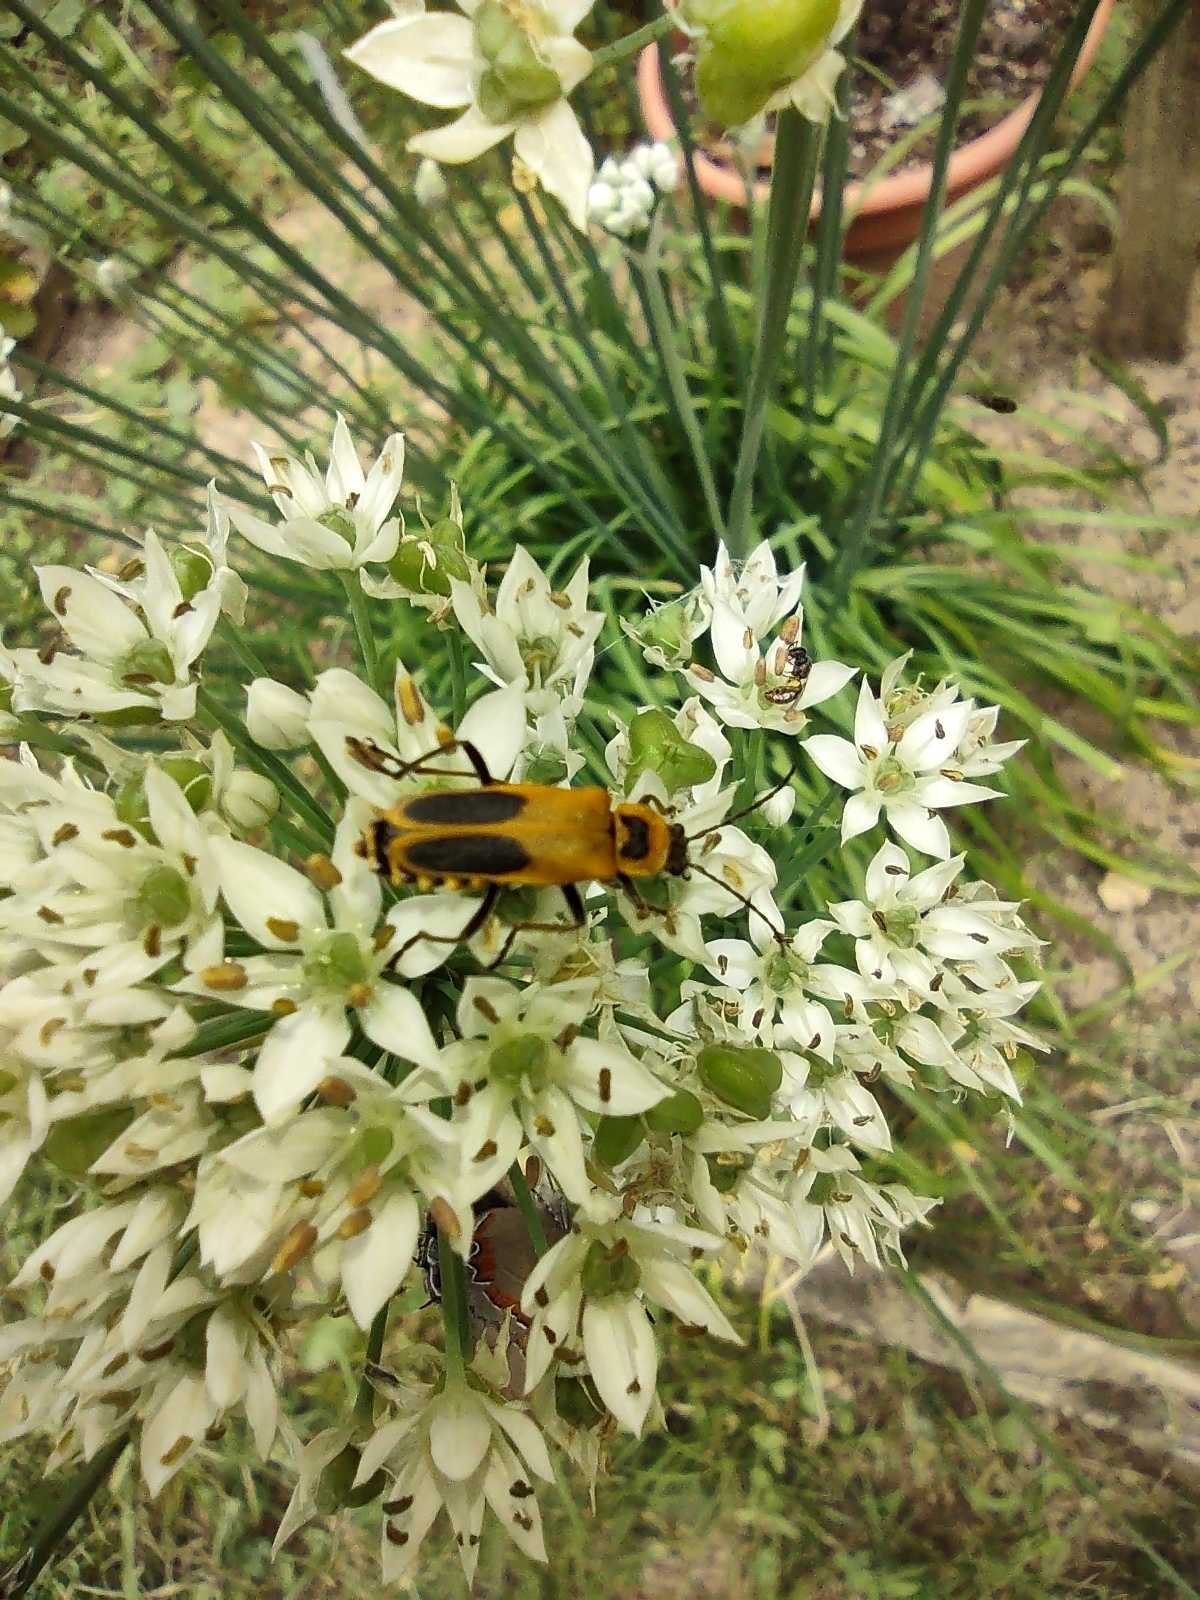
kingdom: Animalia
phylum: Arthropoda
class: Insecta
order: Coleoptera
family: Cantharidae
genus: Chauliognathus
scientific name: Chauliognathus pensylvanicus
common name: Goldenrod soldier beetle
